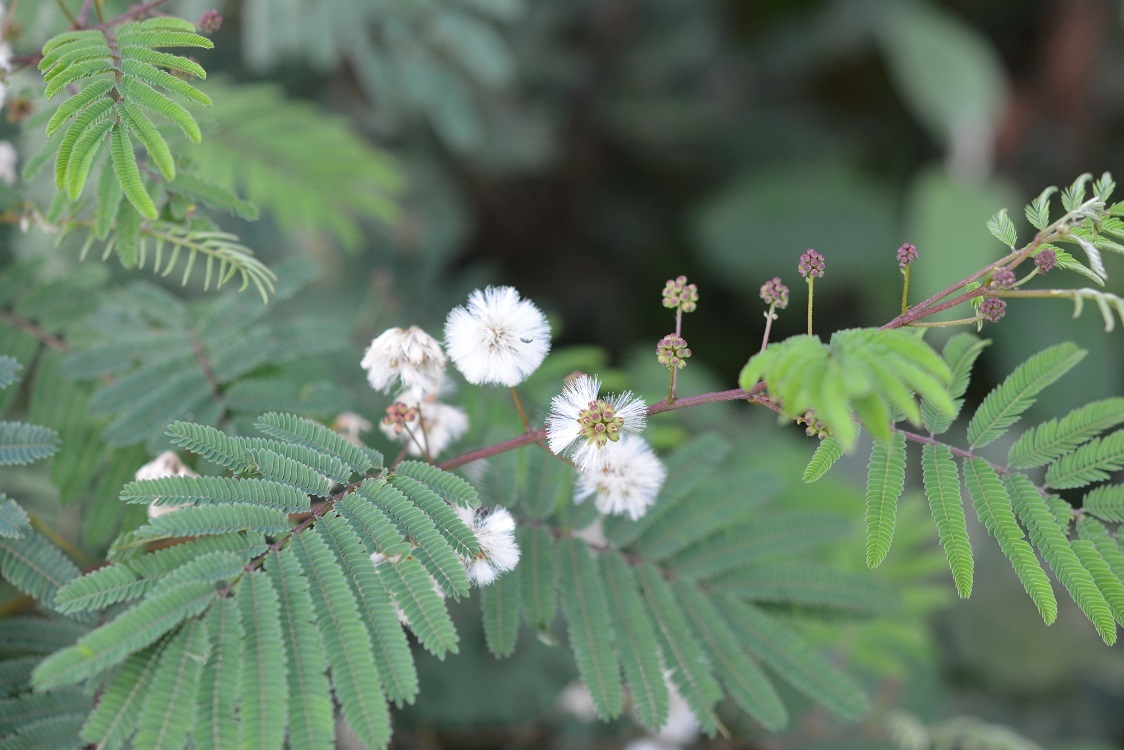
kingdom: Plantae
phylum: Tracheophyta
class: Magnoliopsida
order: Fabales
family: Fabaceae
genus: Acaciella
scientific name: Acaciella angustissima
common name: Prairie acacia
